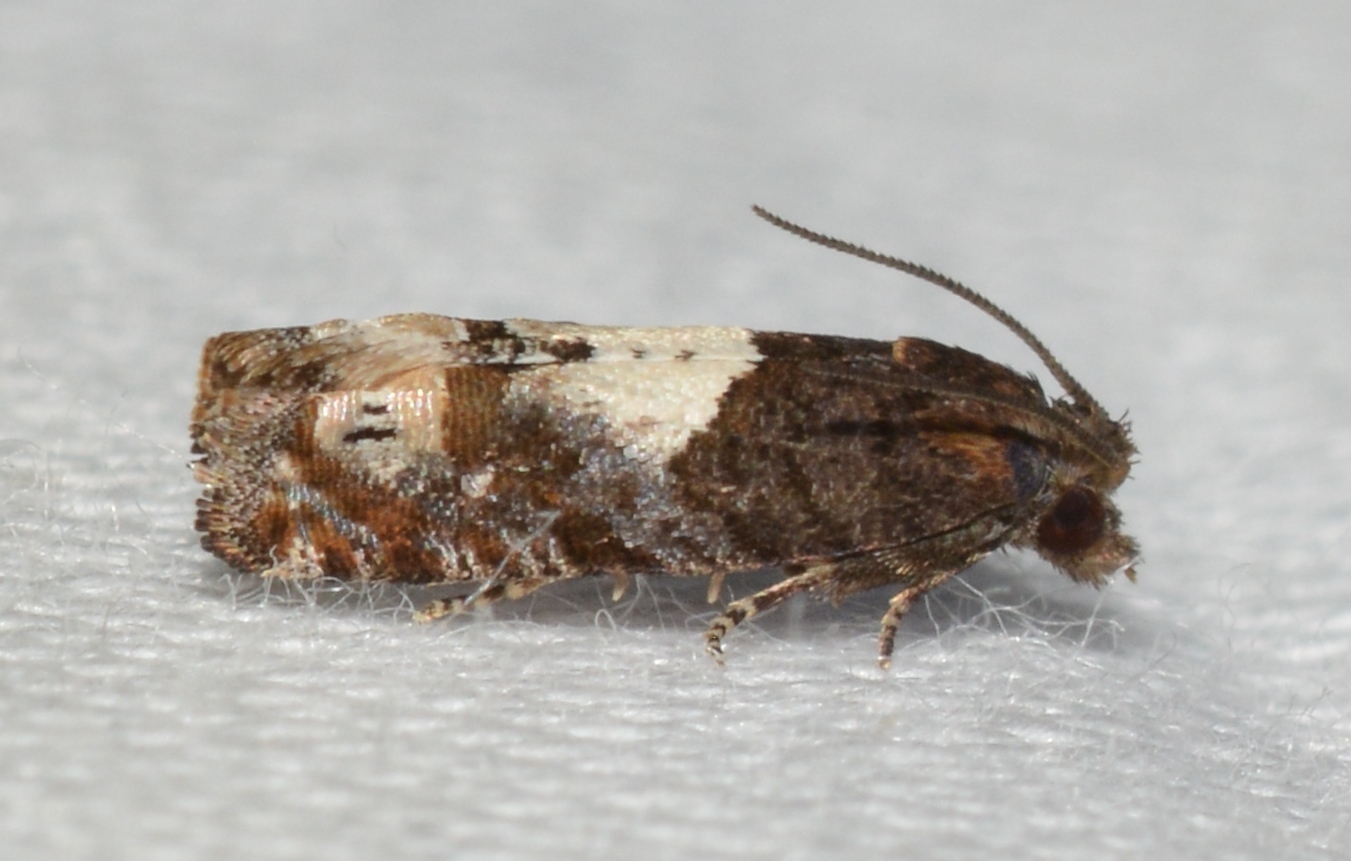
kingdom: Animalia
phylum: Arthropoda
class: Insecta
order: Lepidoptera
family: Tortricidae
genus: Epiblema
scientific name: Epiblema otiosana
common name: Bidens borer moth
